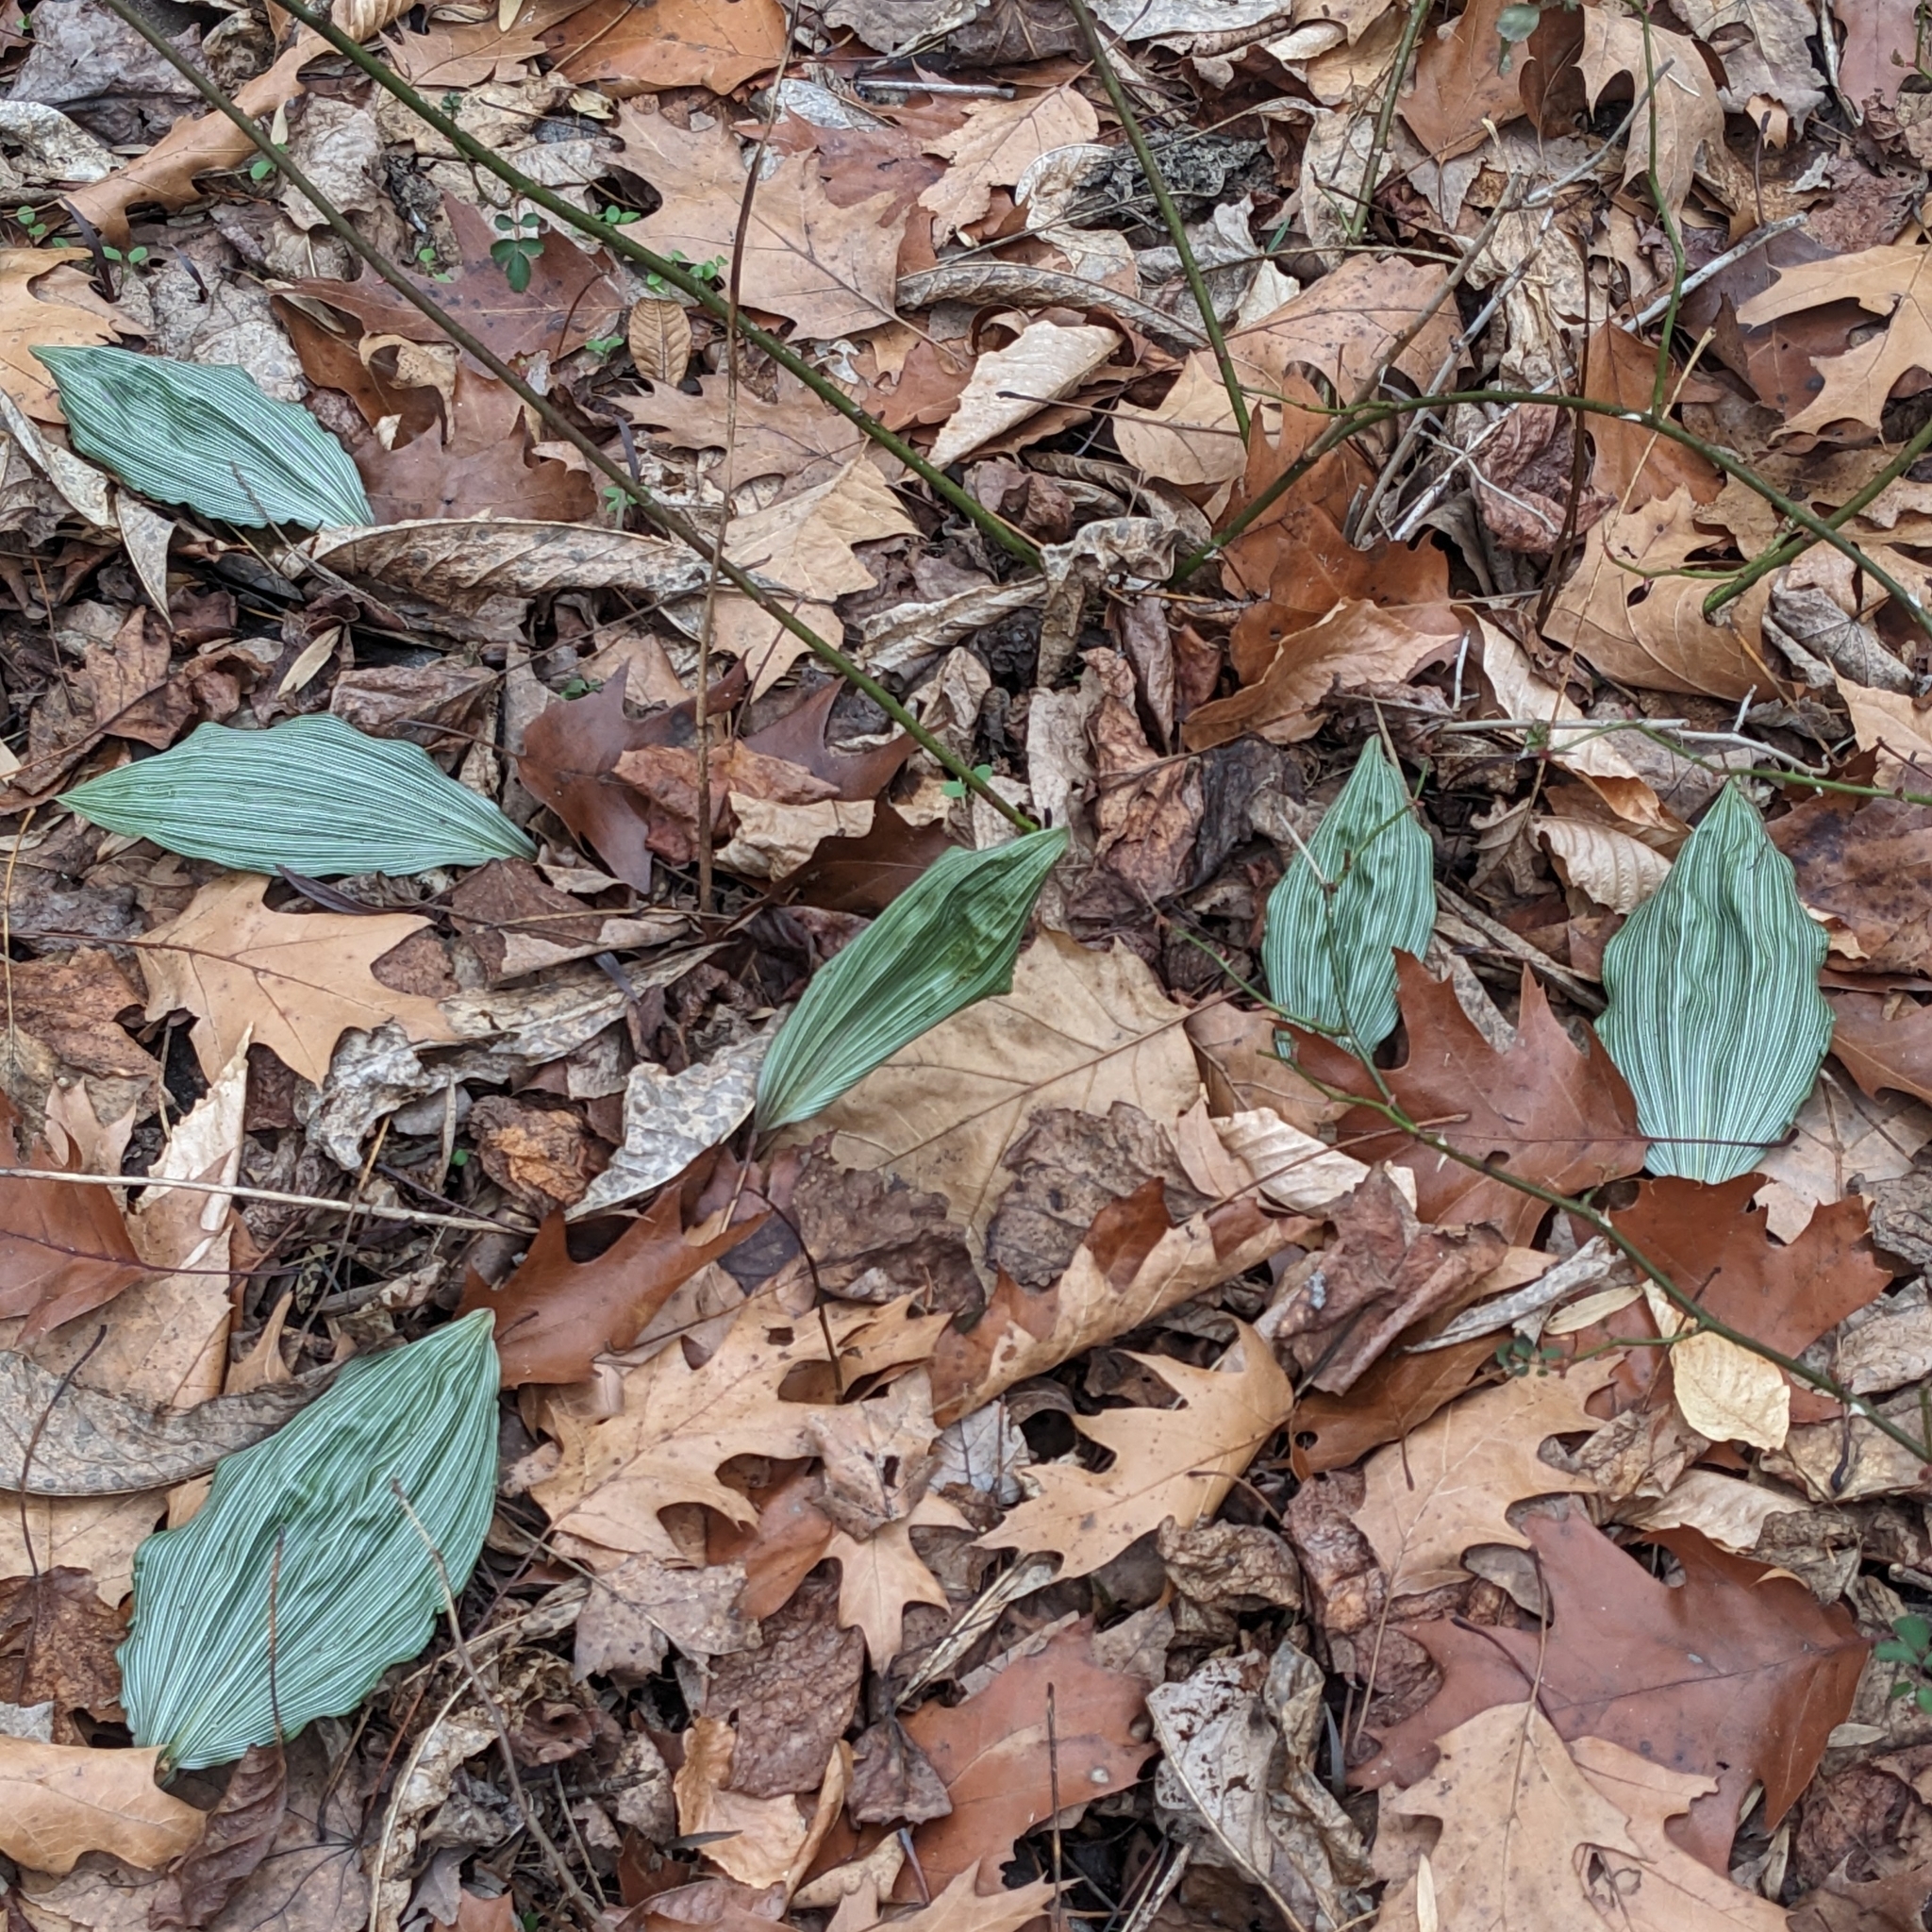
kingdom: Plantae
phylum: Tracheophyta
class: Liliopsida
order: Asparagales
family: Orchidaceae
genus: Aplectrum
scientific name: Aplectrum hyemale
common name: Adam-and-eve
